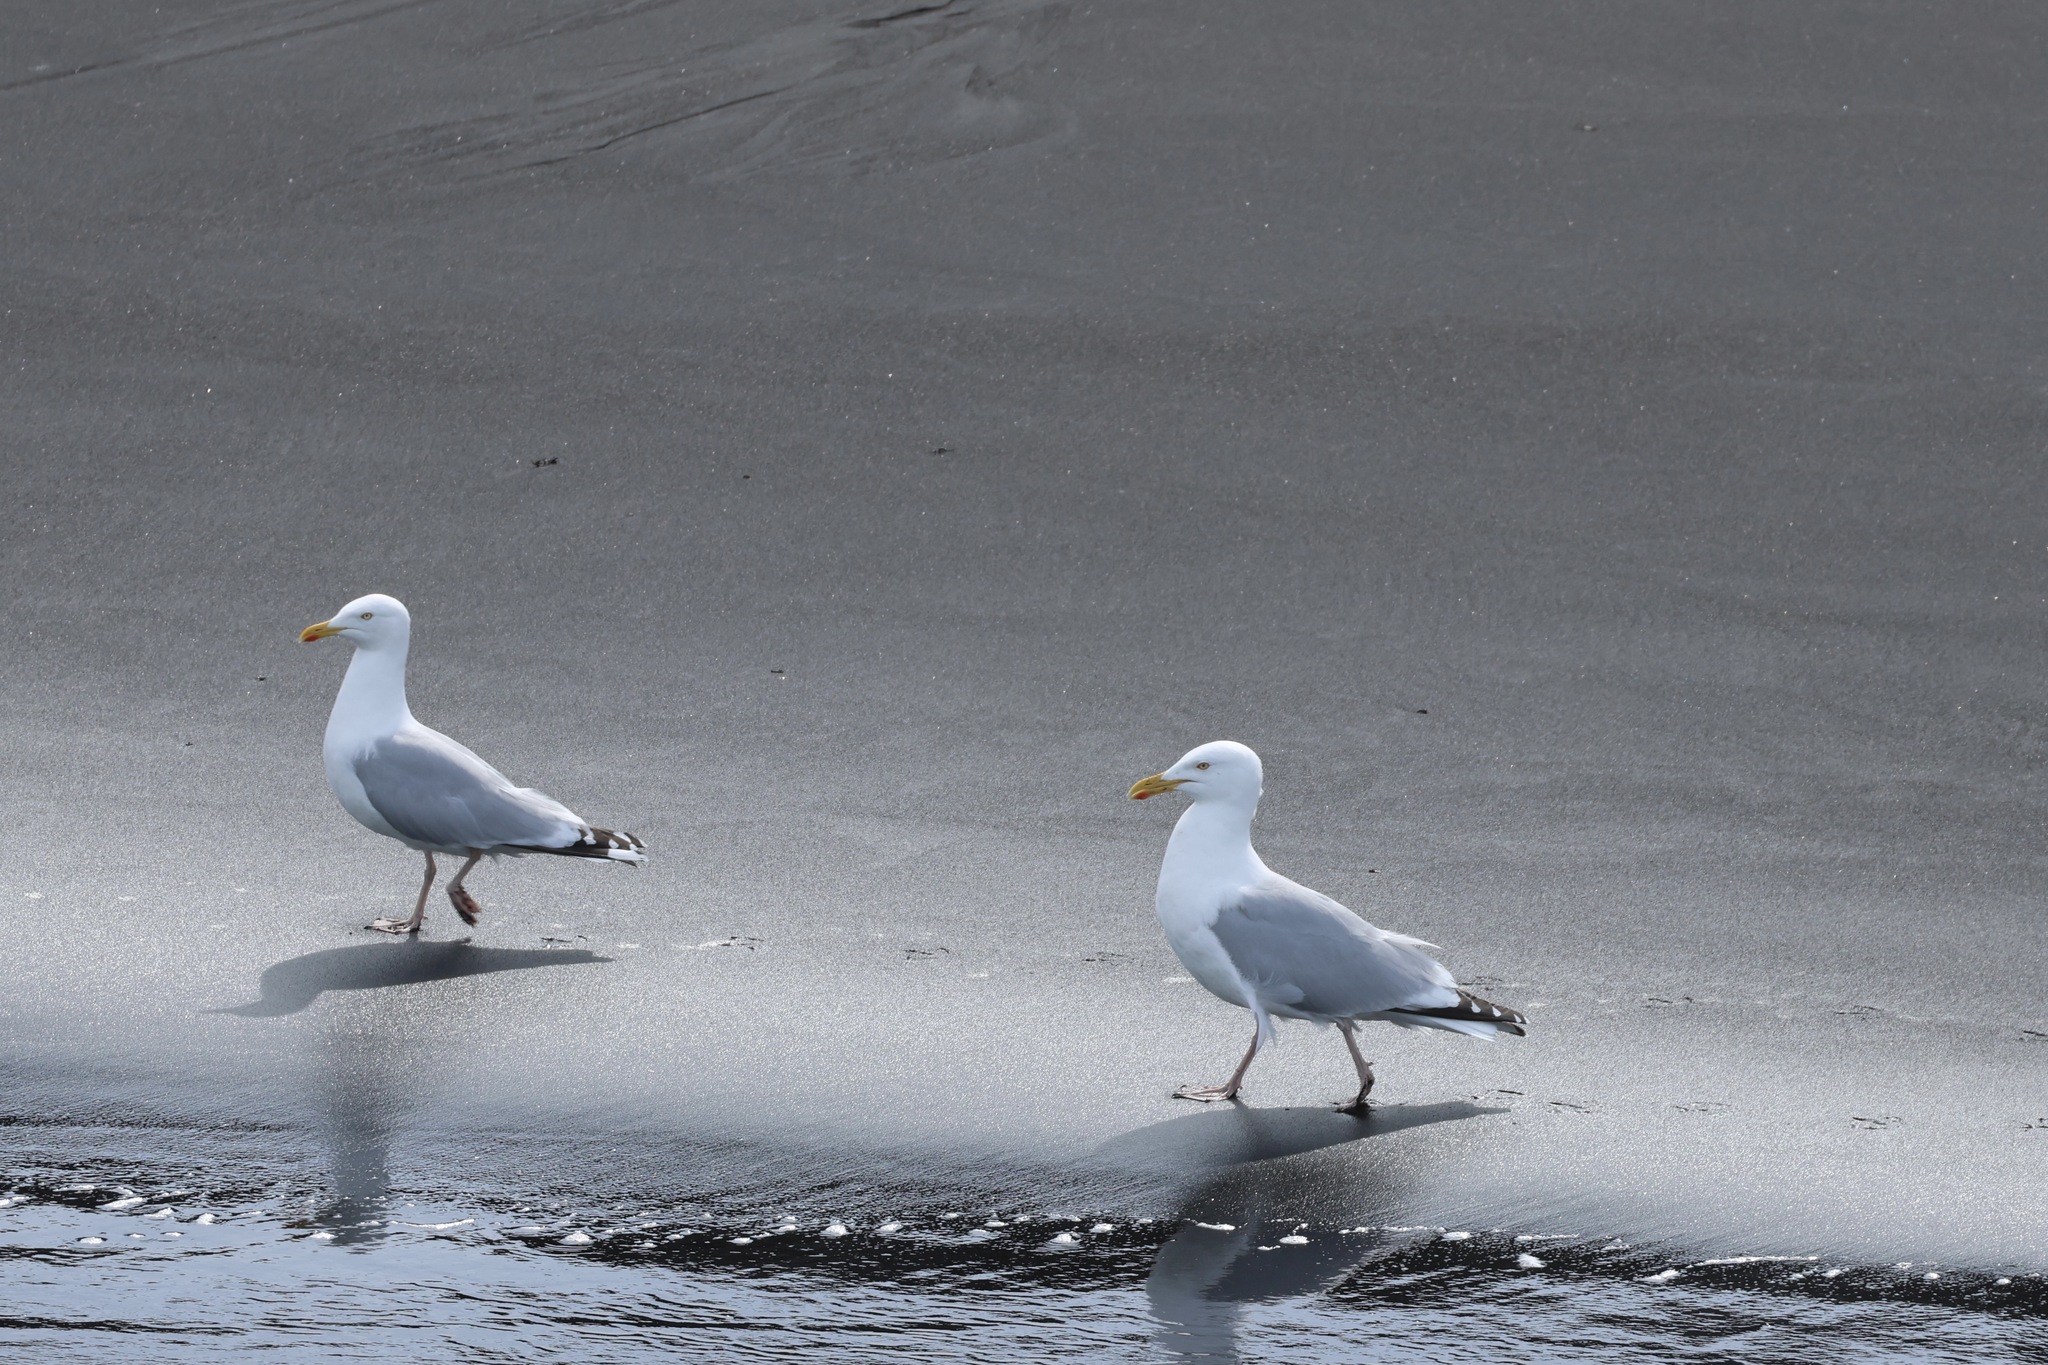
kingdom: Animalia
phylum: Chordata
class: Aves
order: Charadriiformes
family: Laridae
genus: Larus
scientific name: Larus argentatus
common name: Herring gull
